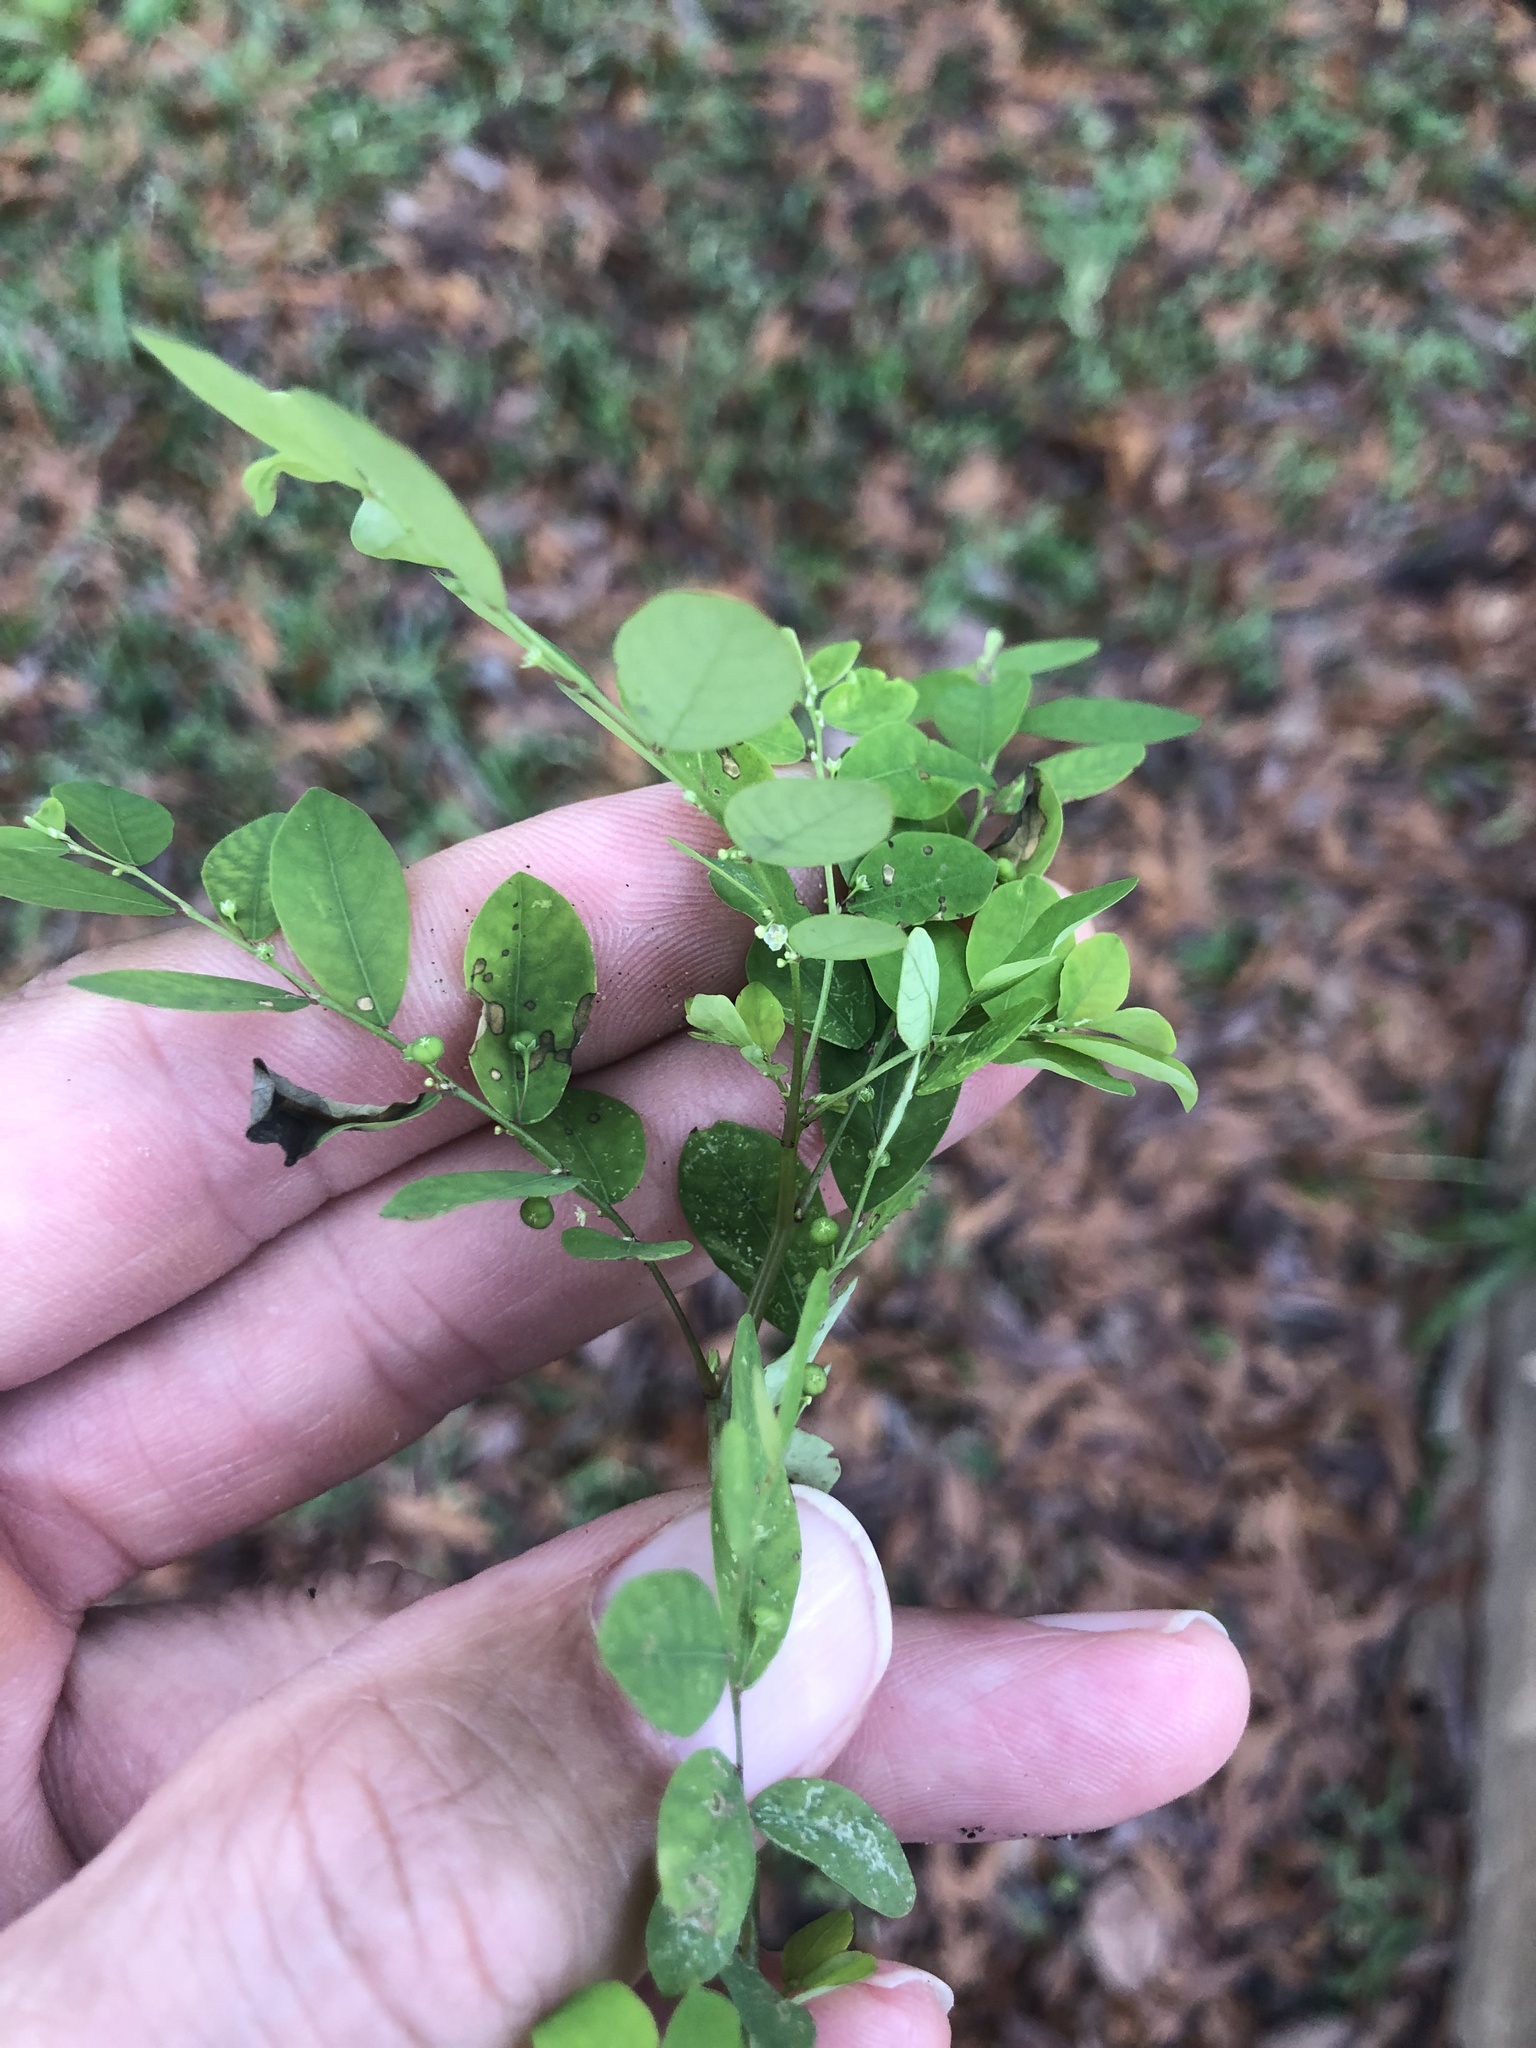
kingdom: Plantae
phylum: Tracheophyta
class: Magnoliopsida
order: Malpighiales
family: Phyllanthaceae
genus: Phyllanthus
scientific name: Phyllanthus tenellus
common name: Mascarene island leaf-flower
